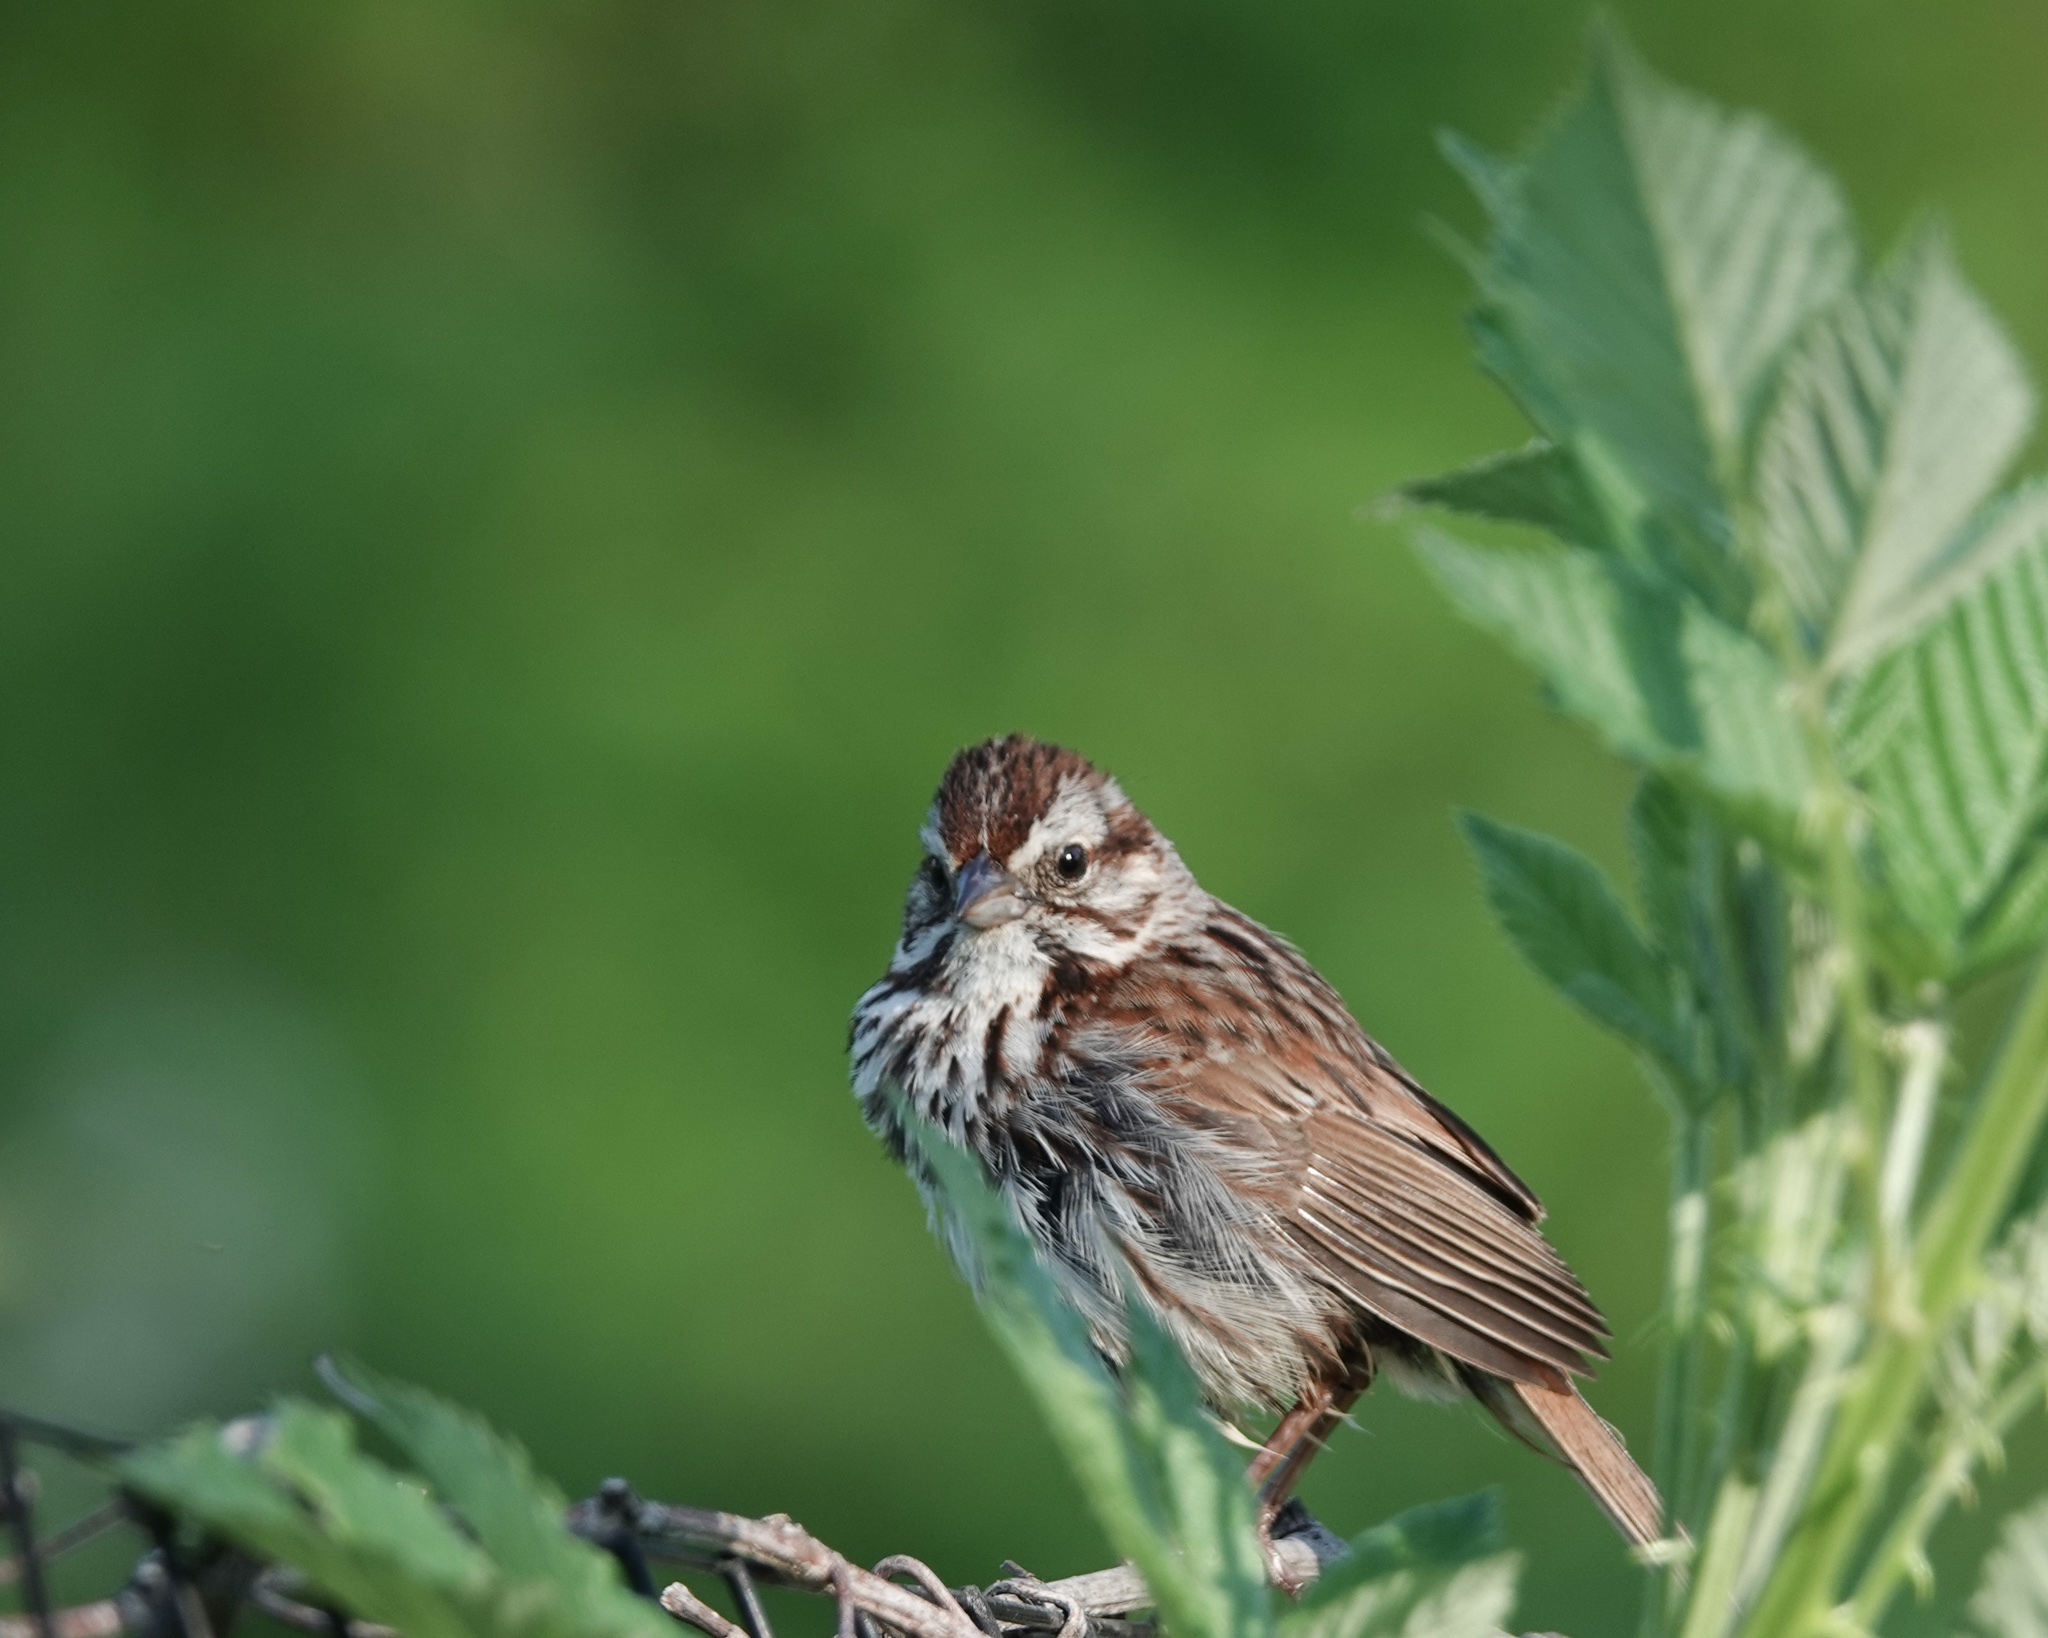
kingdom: Animalia
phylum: Chordata
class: Aves
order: Passeriformes
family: Passerellidae
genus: Melospiza
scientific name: Melospiza melodia
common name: Song sparrow
